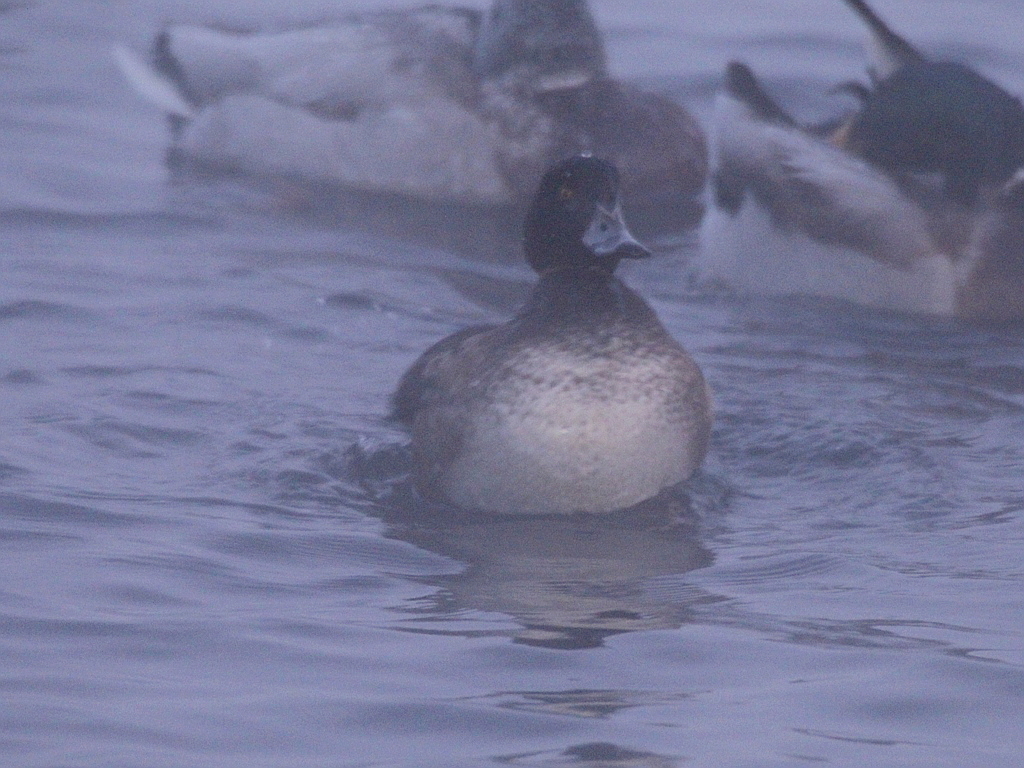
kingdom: Animalia
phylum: Chordata
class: Aves
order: Anseriformes
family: Anatidae
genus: Aythya
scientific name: Aythya fuligula
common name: Tufted duck
